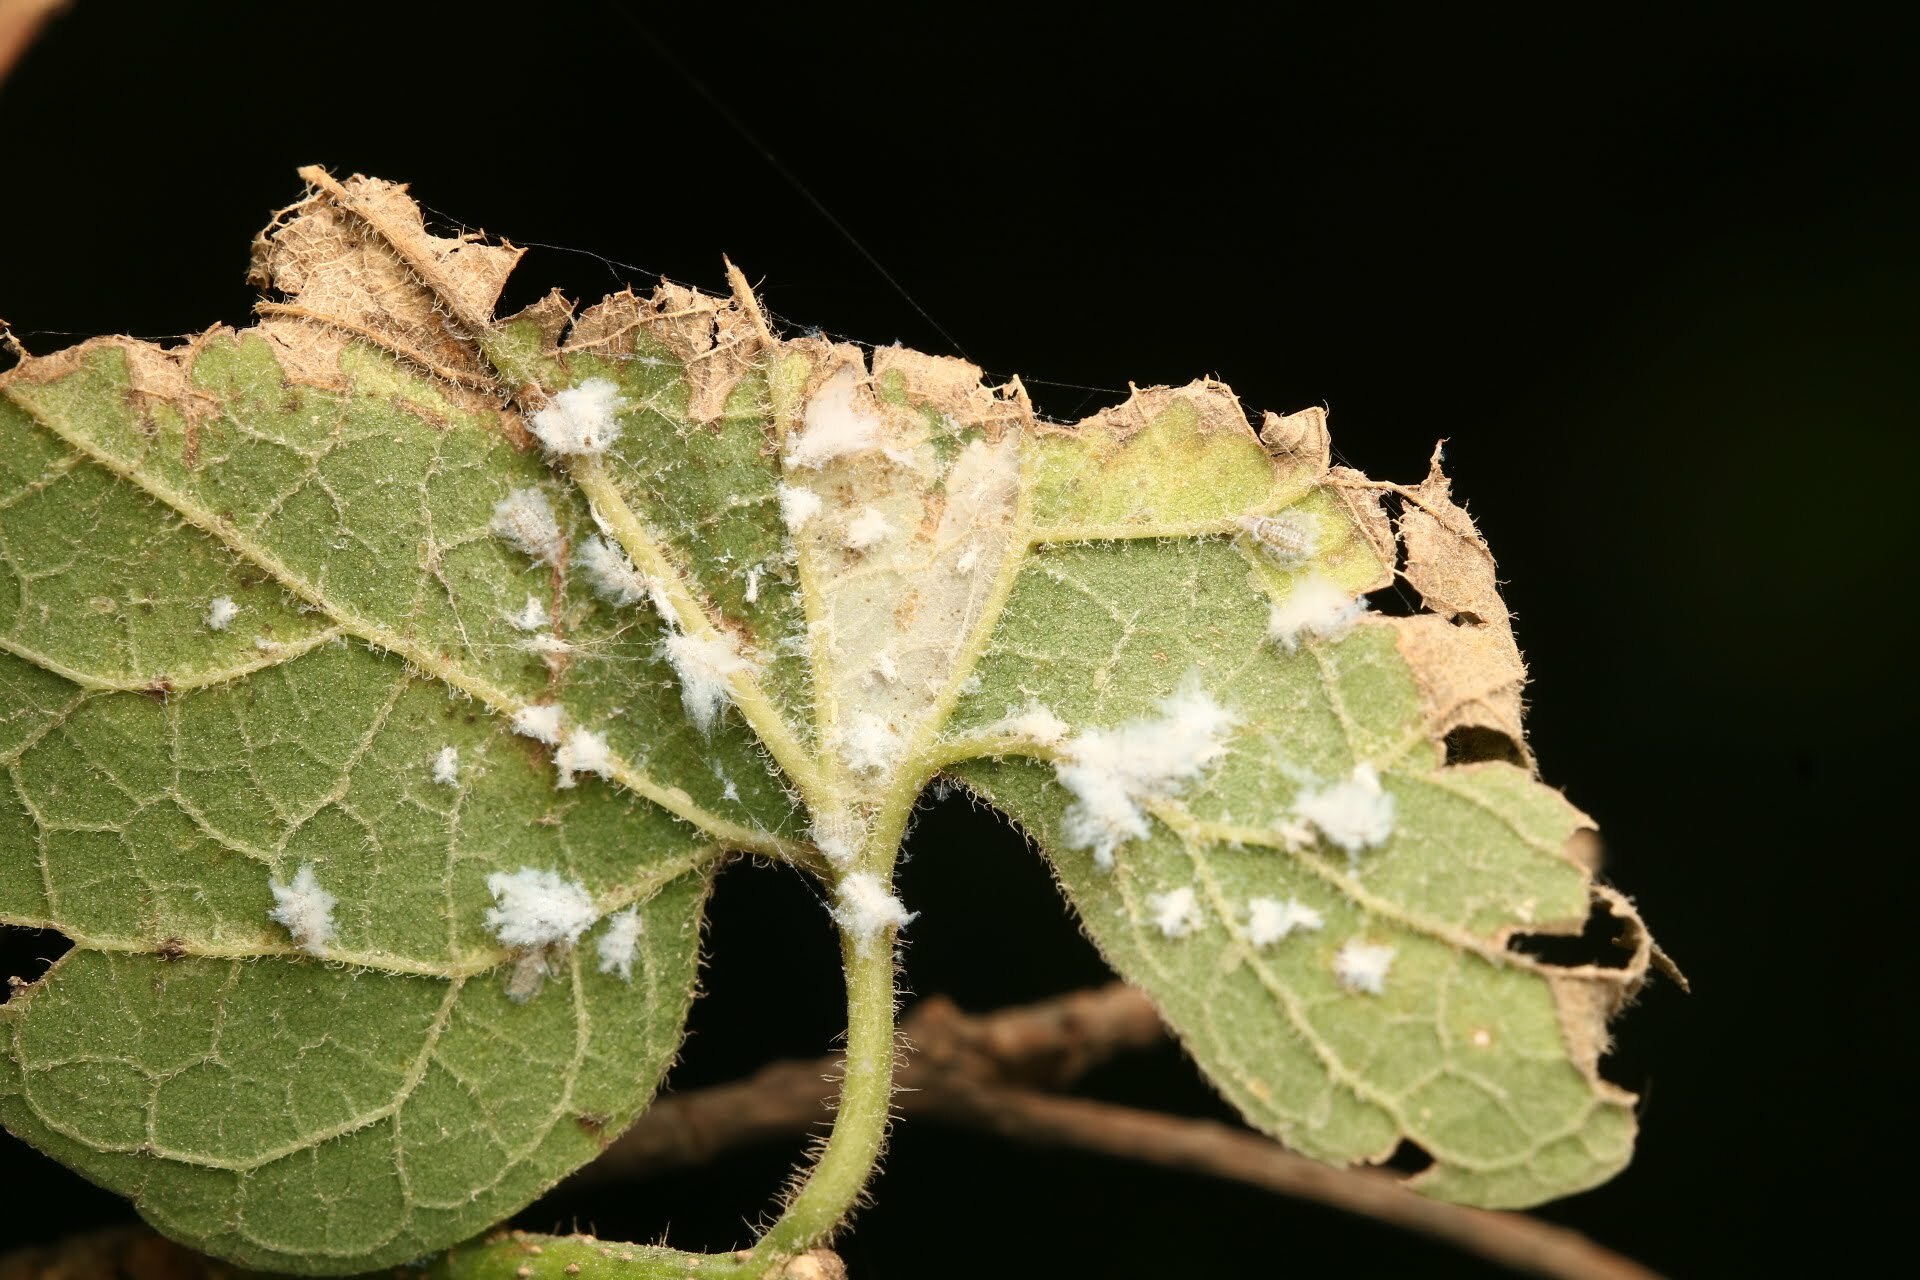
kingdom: Animalia
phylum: Arthropoda
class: Insecta
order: Hemiptera
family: Aphididae
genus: Shivaphis
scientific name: Shivaphis celti
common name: Asian wooly hackberry aphid
